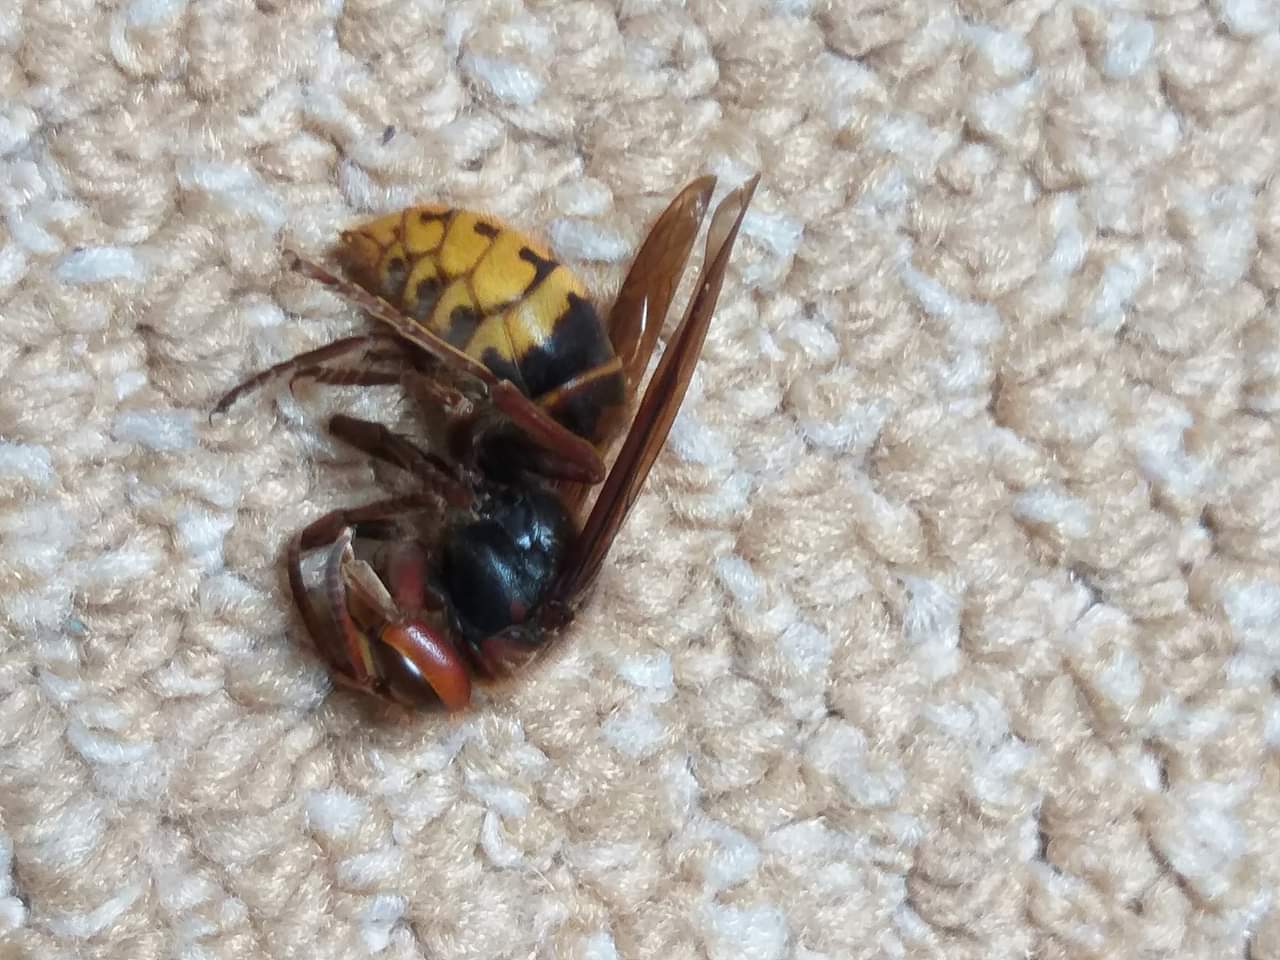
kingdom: Animalia
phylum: Arthropoda
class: Insecta
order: Hymenoptera
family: Vespidae
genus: Vespa
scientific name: Vespa crabro
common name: Hornet
